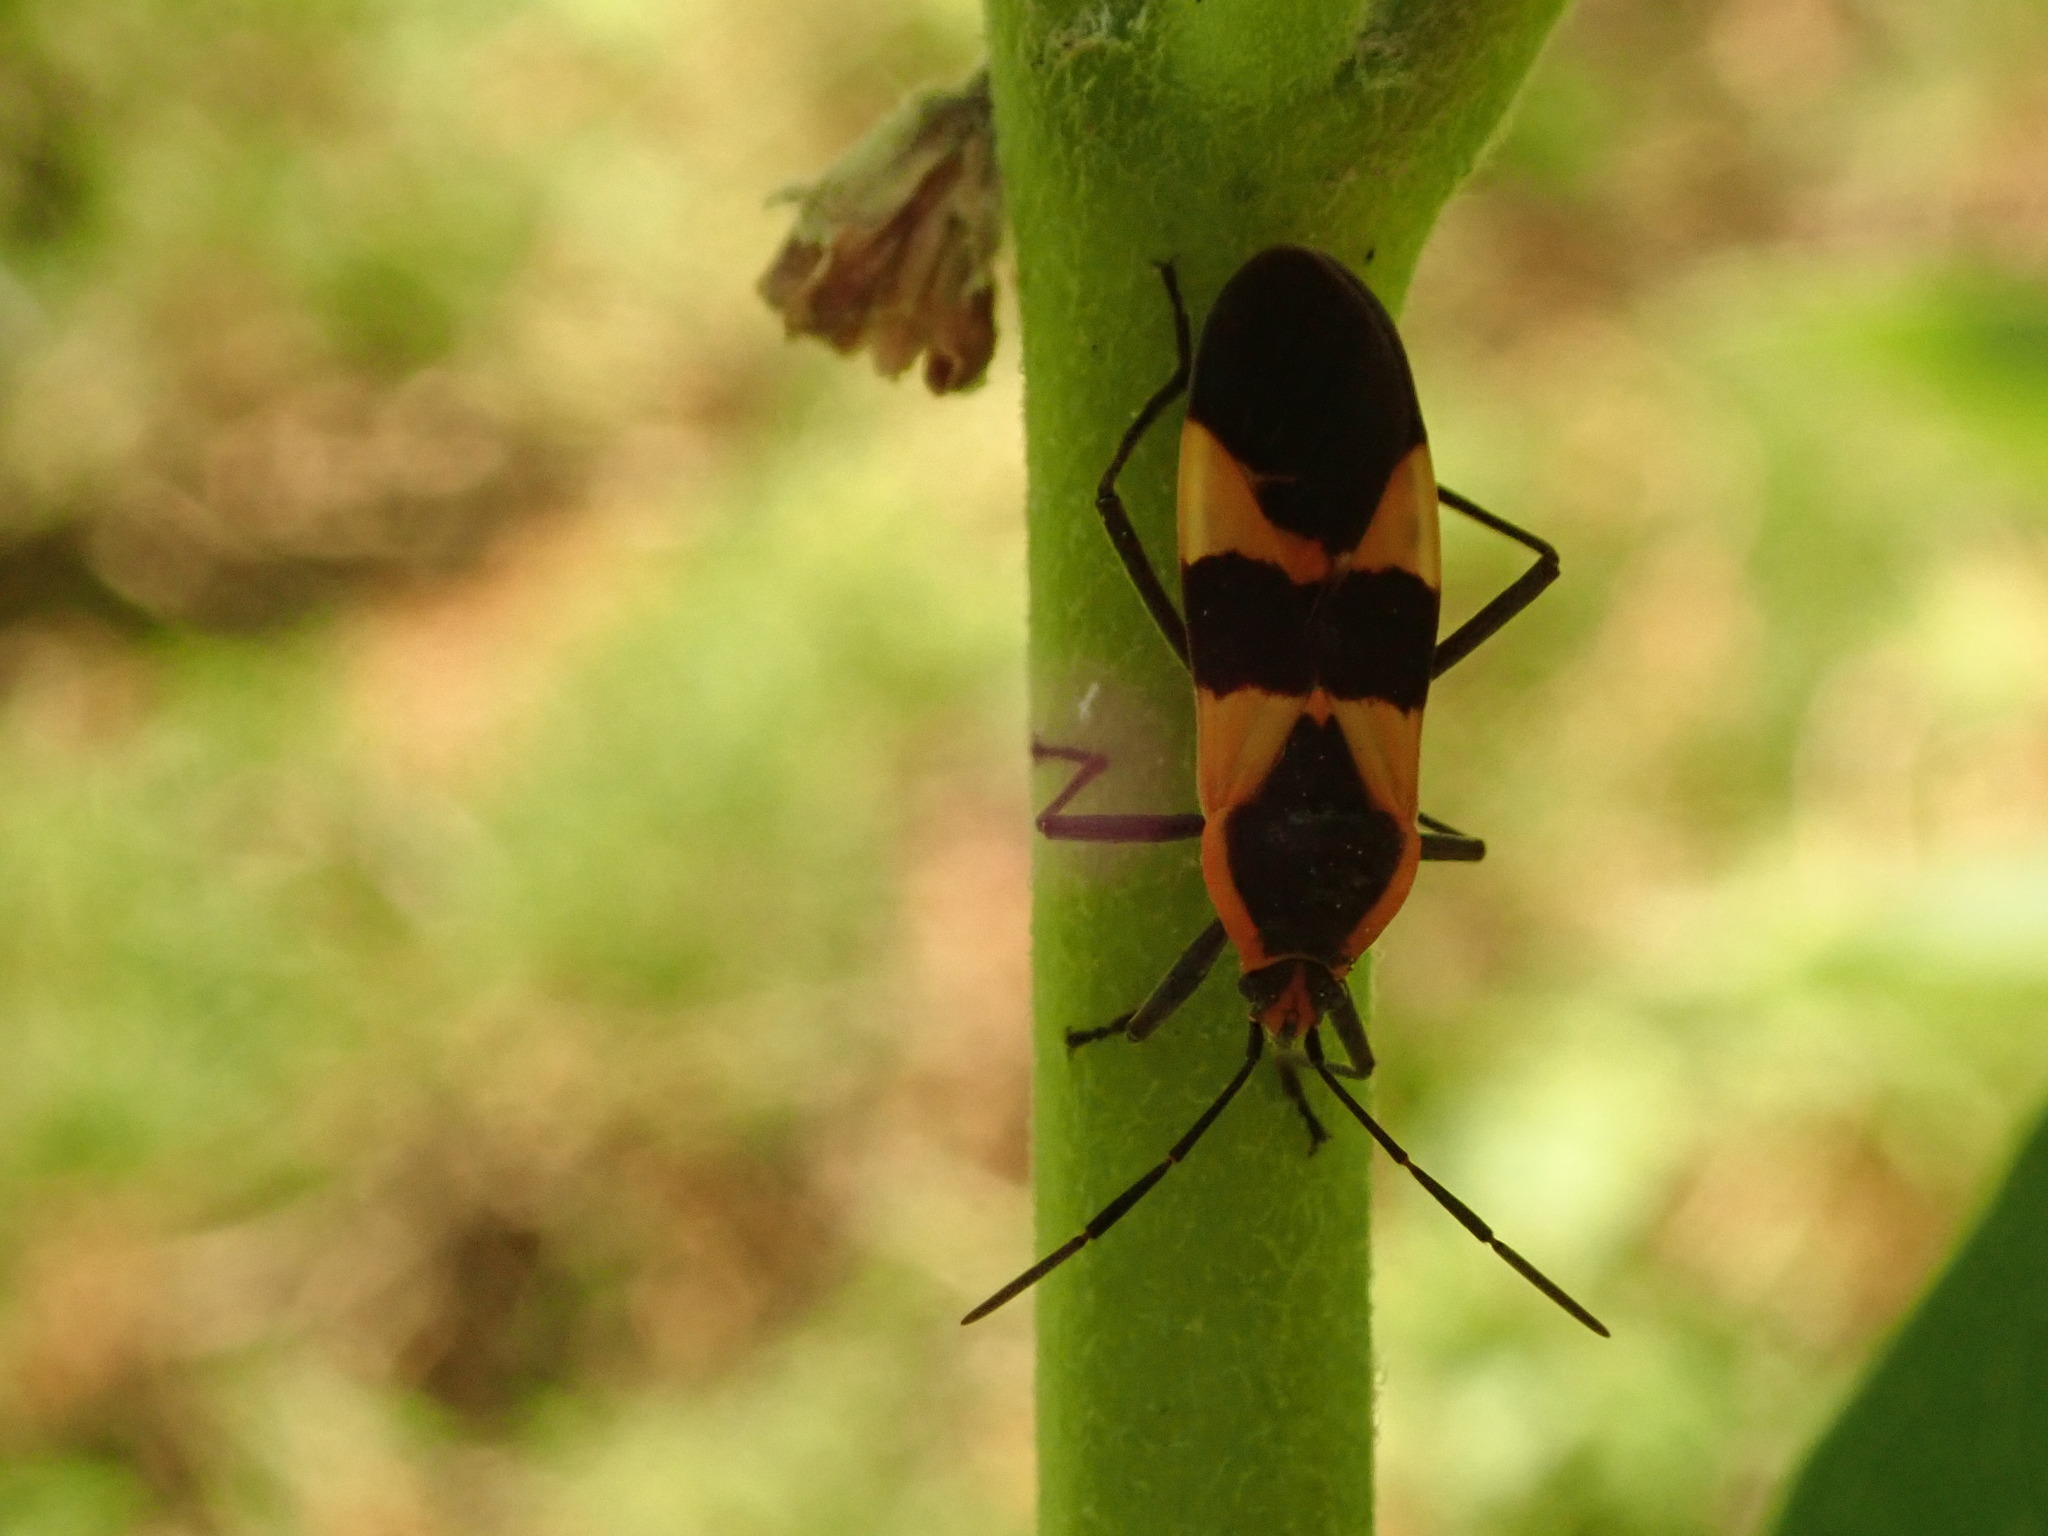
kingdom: Animalia
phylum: Arthropoda
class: Insecta
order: Hemiptera
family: Lygaeidae
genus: Oncopeltus
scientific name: Oncopeltus fasciatus
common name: Large milkweed bug
